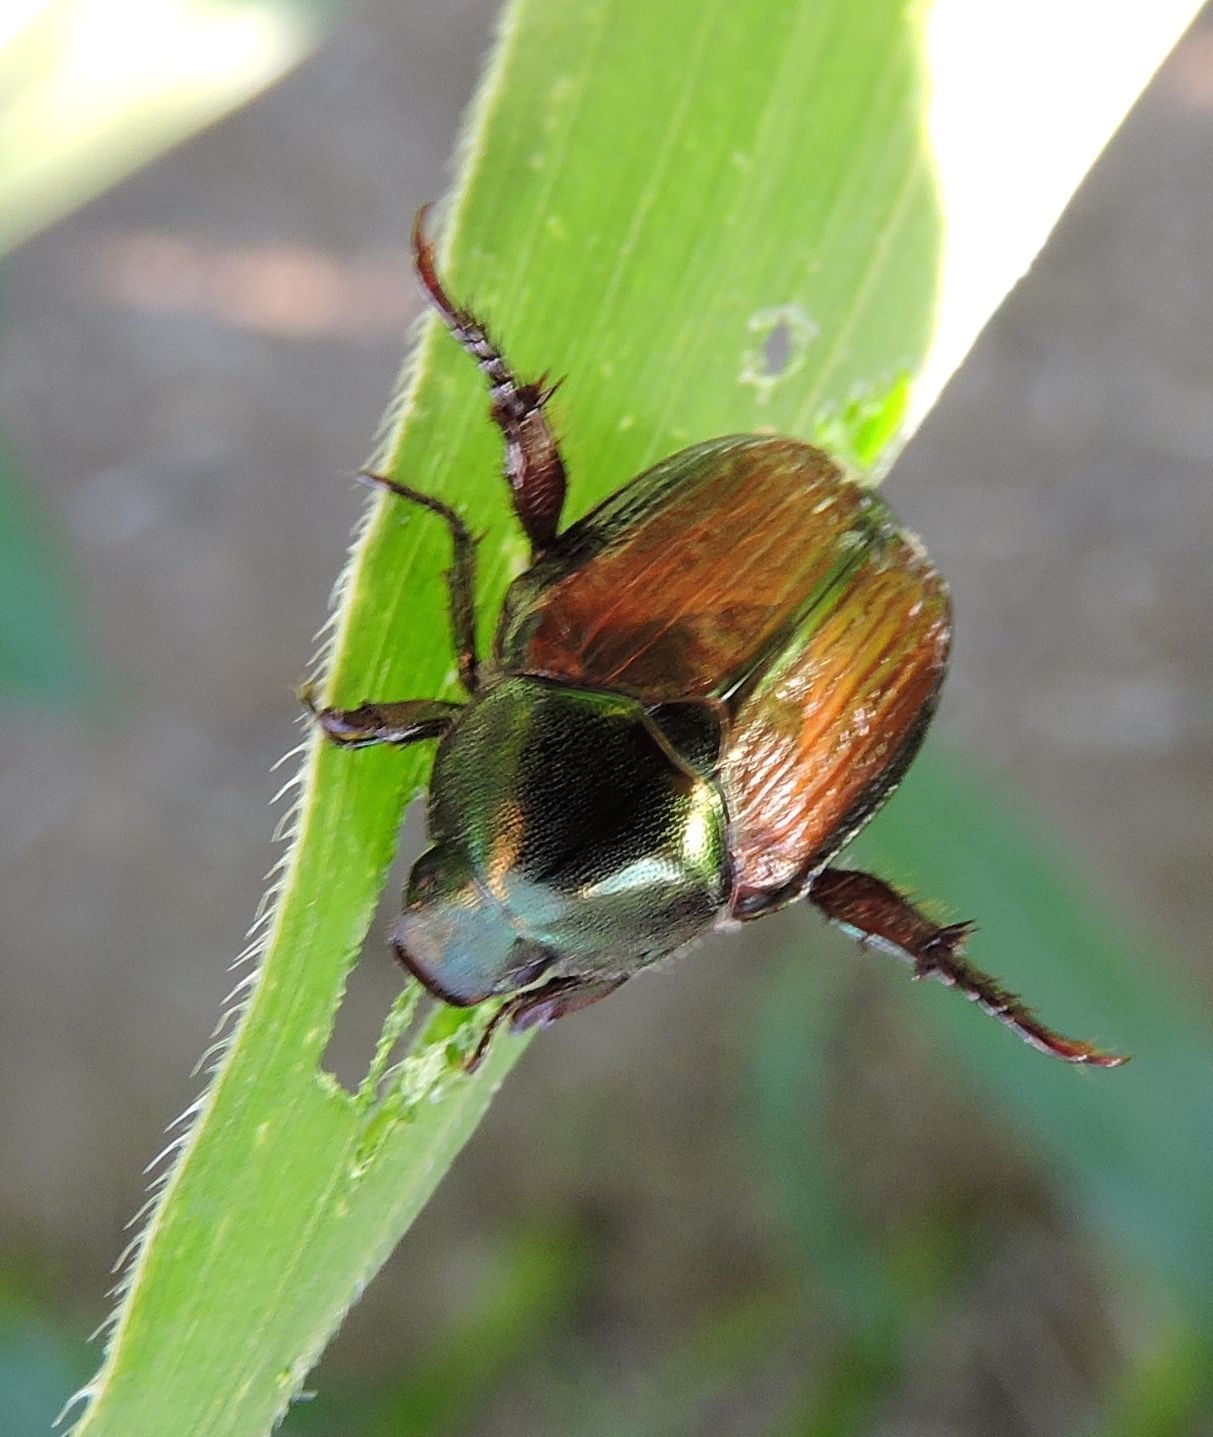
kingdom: Animalia
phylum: Arthropoda
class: Insecta
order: Coleoptera
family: Scarabaeidae
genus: Popillia
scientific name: Popillia japonica
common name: Japanese beetle
